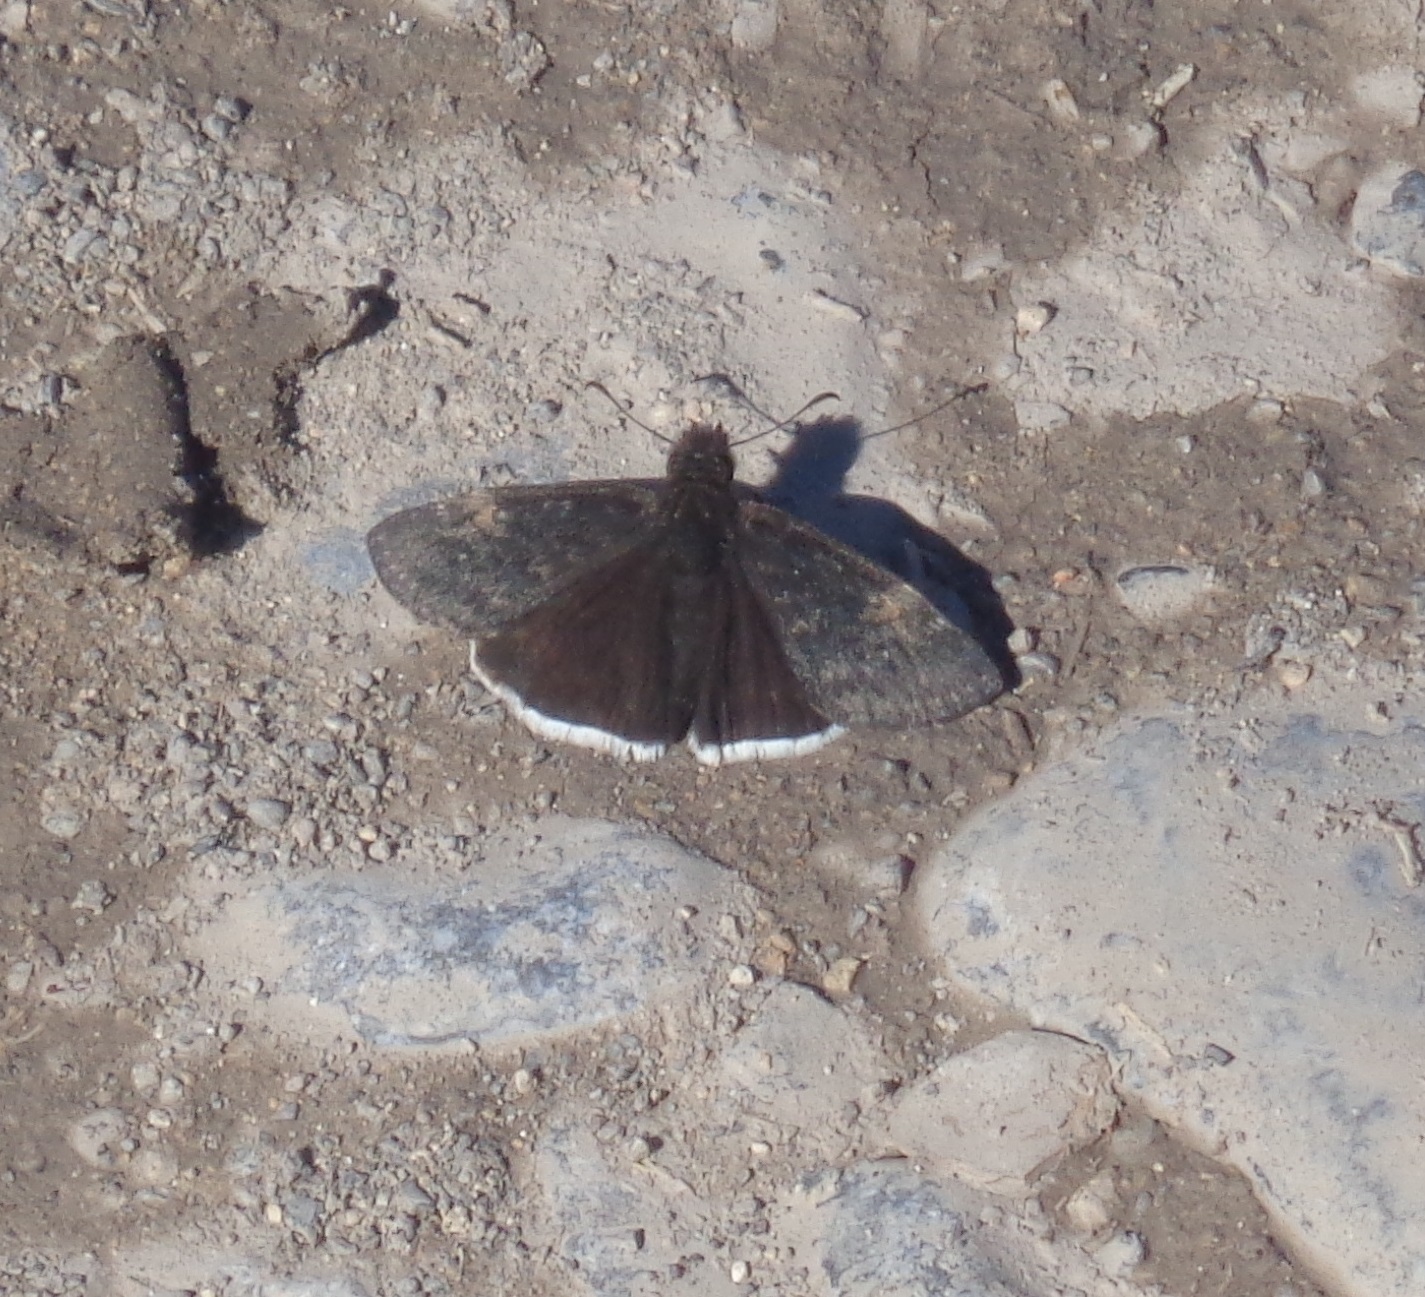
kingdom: Animalia
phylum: Arthropoda
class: Insecta
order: Lepidoptera
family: Hesperiidae
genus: Erynnis
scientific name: Erynnis funeralis
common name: Funereal duskywing
